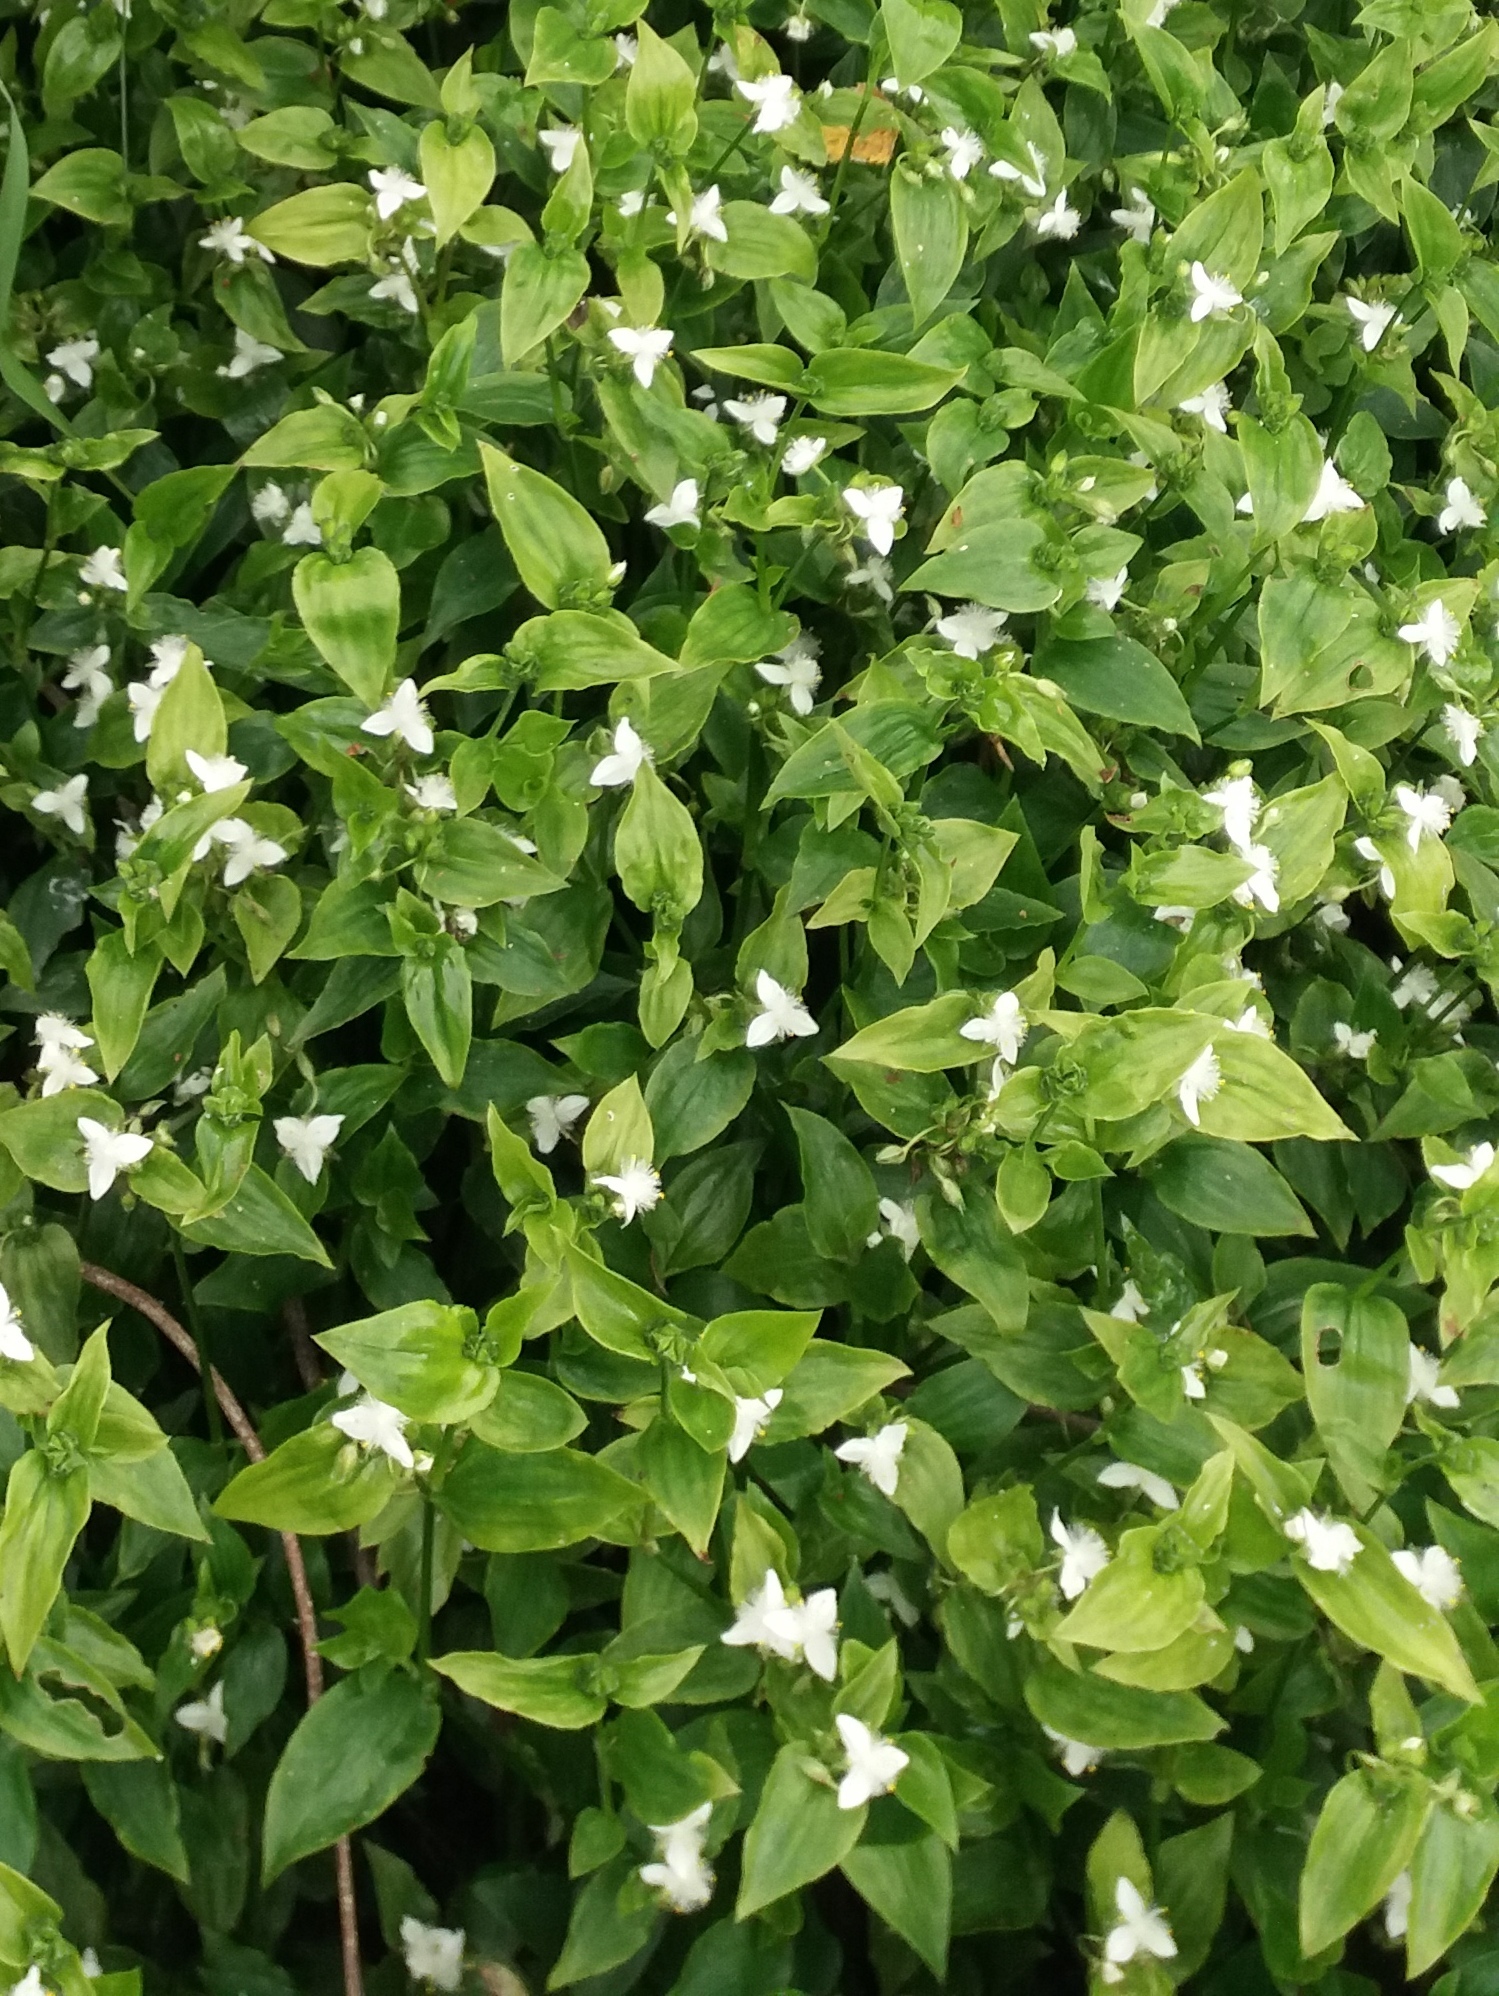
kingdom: Plantae
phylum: Tracheophyta
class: Liliopsida
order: Commelinales
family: Commelinaceae
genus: Tradescantia
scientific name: Tradescantia fluminensis
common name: Wandering-jew
